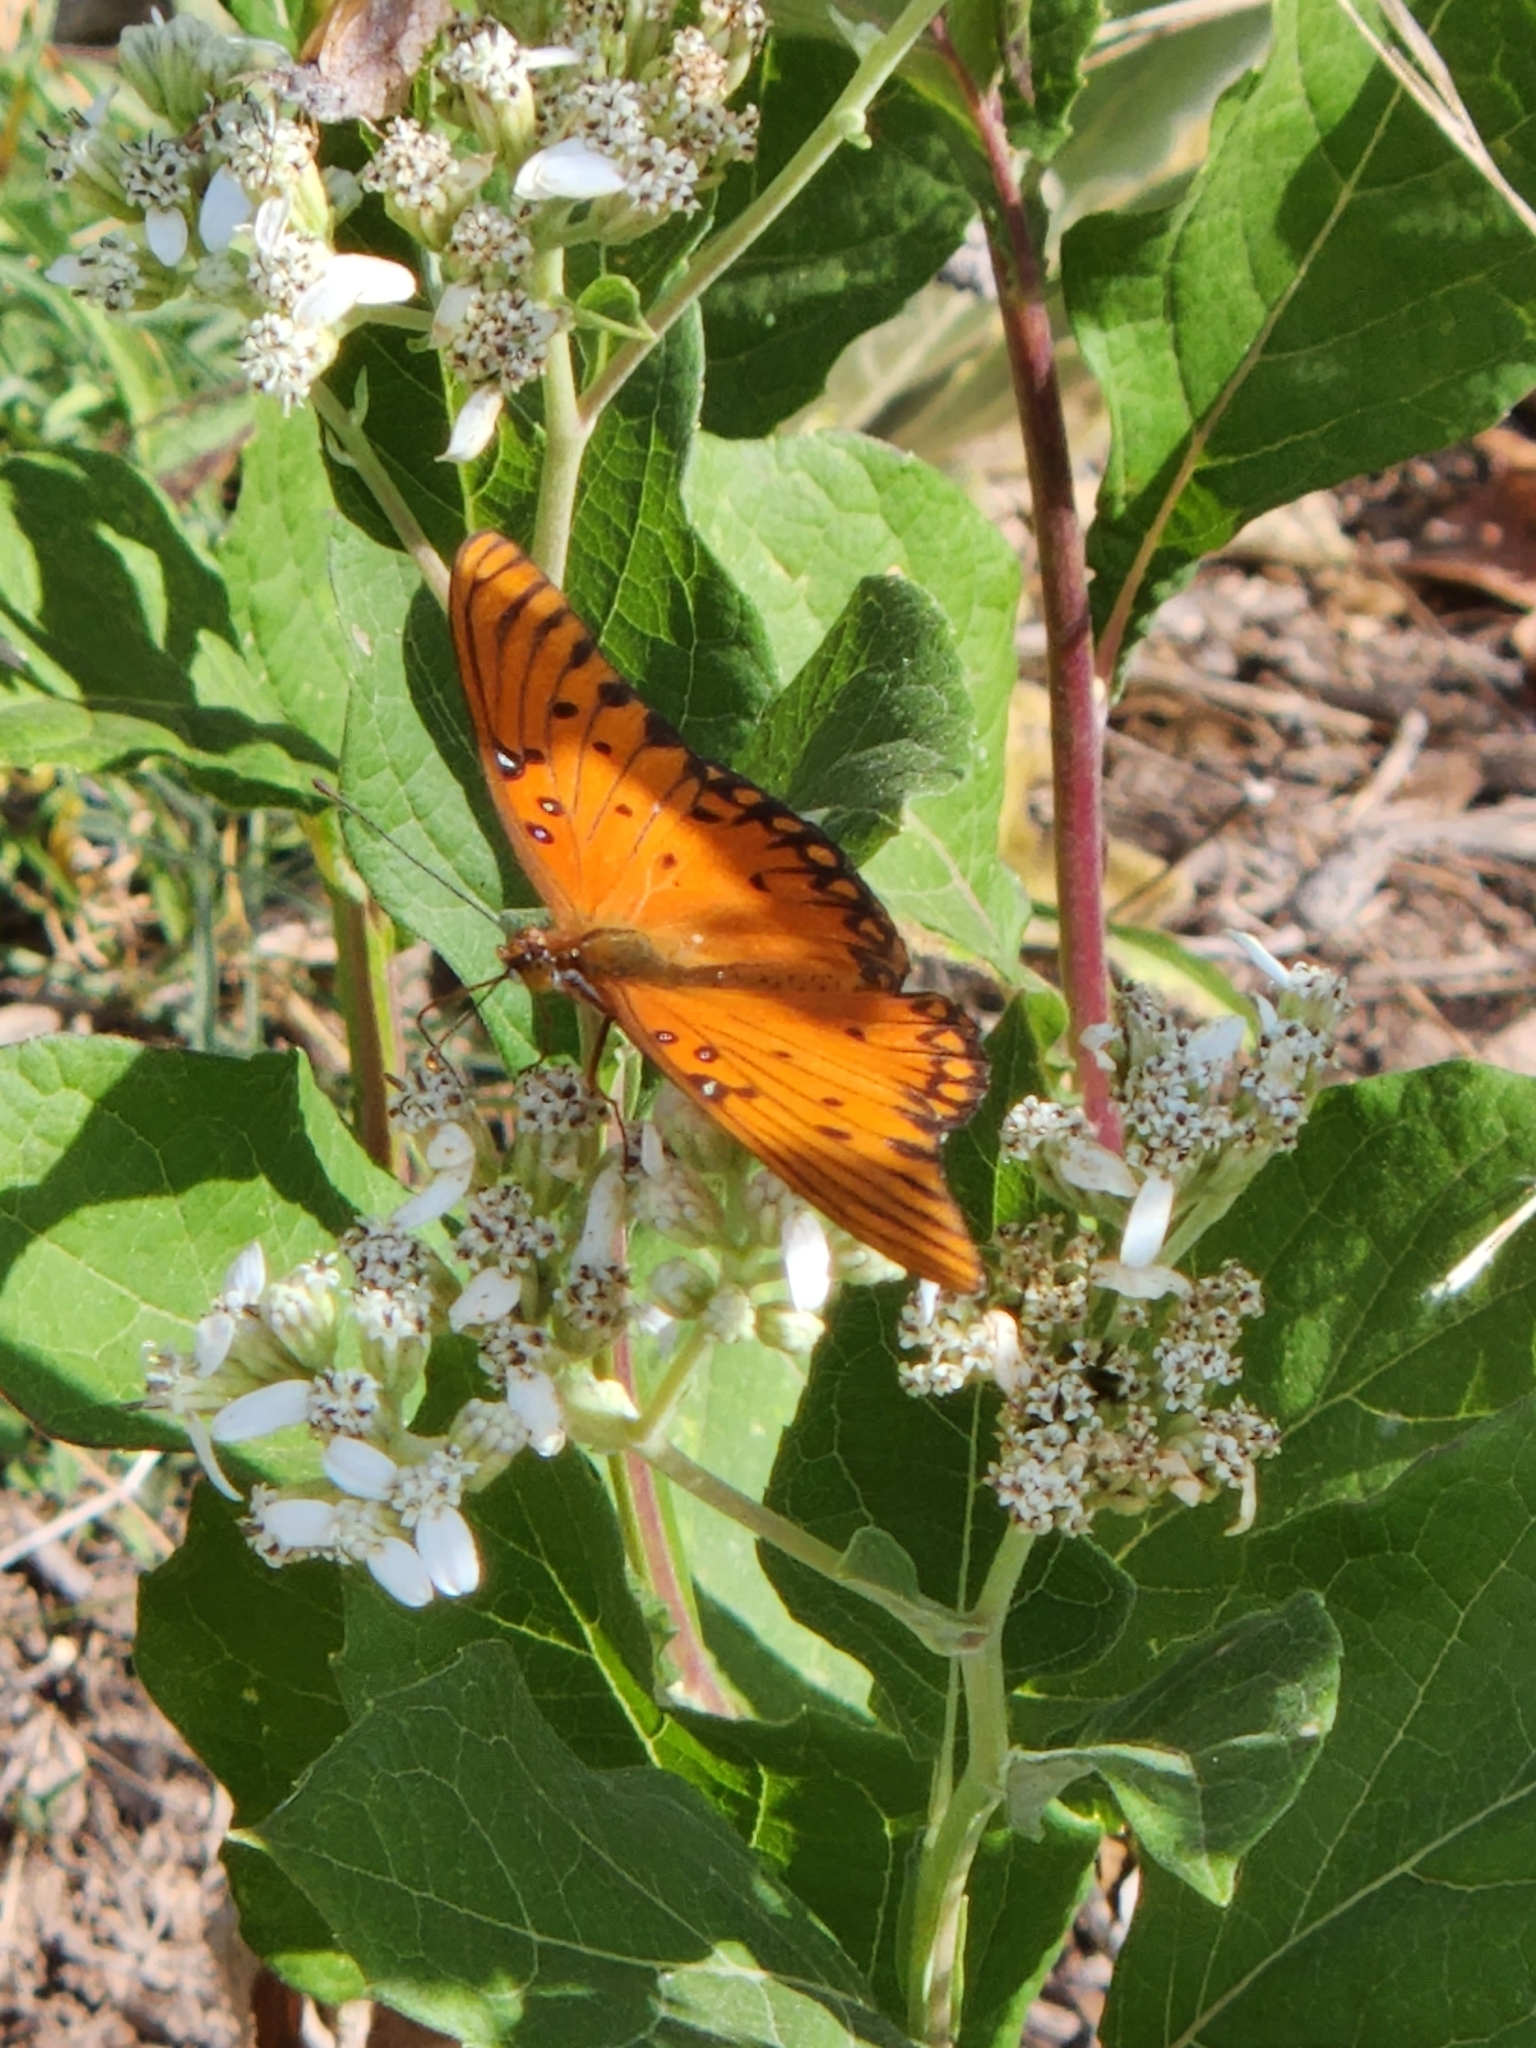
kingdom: Animalia
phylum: Arthropoda
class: Insecta
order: Lepidoptera
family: Nymphalidae
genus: Dione
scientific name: Dione vanillae
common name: Gulf fritillary
